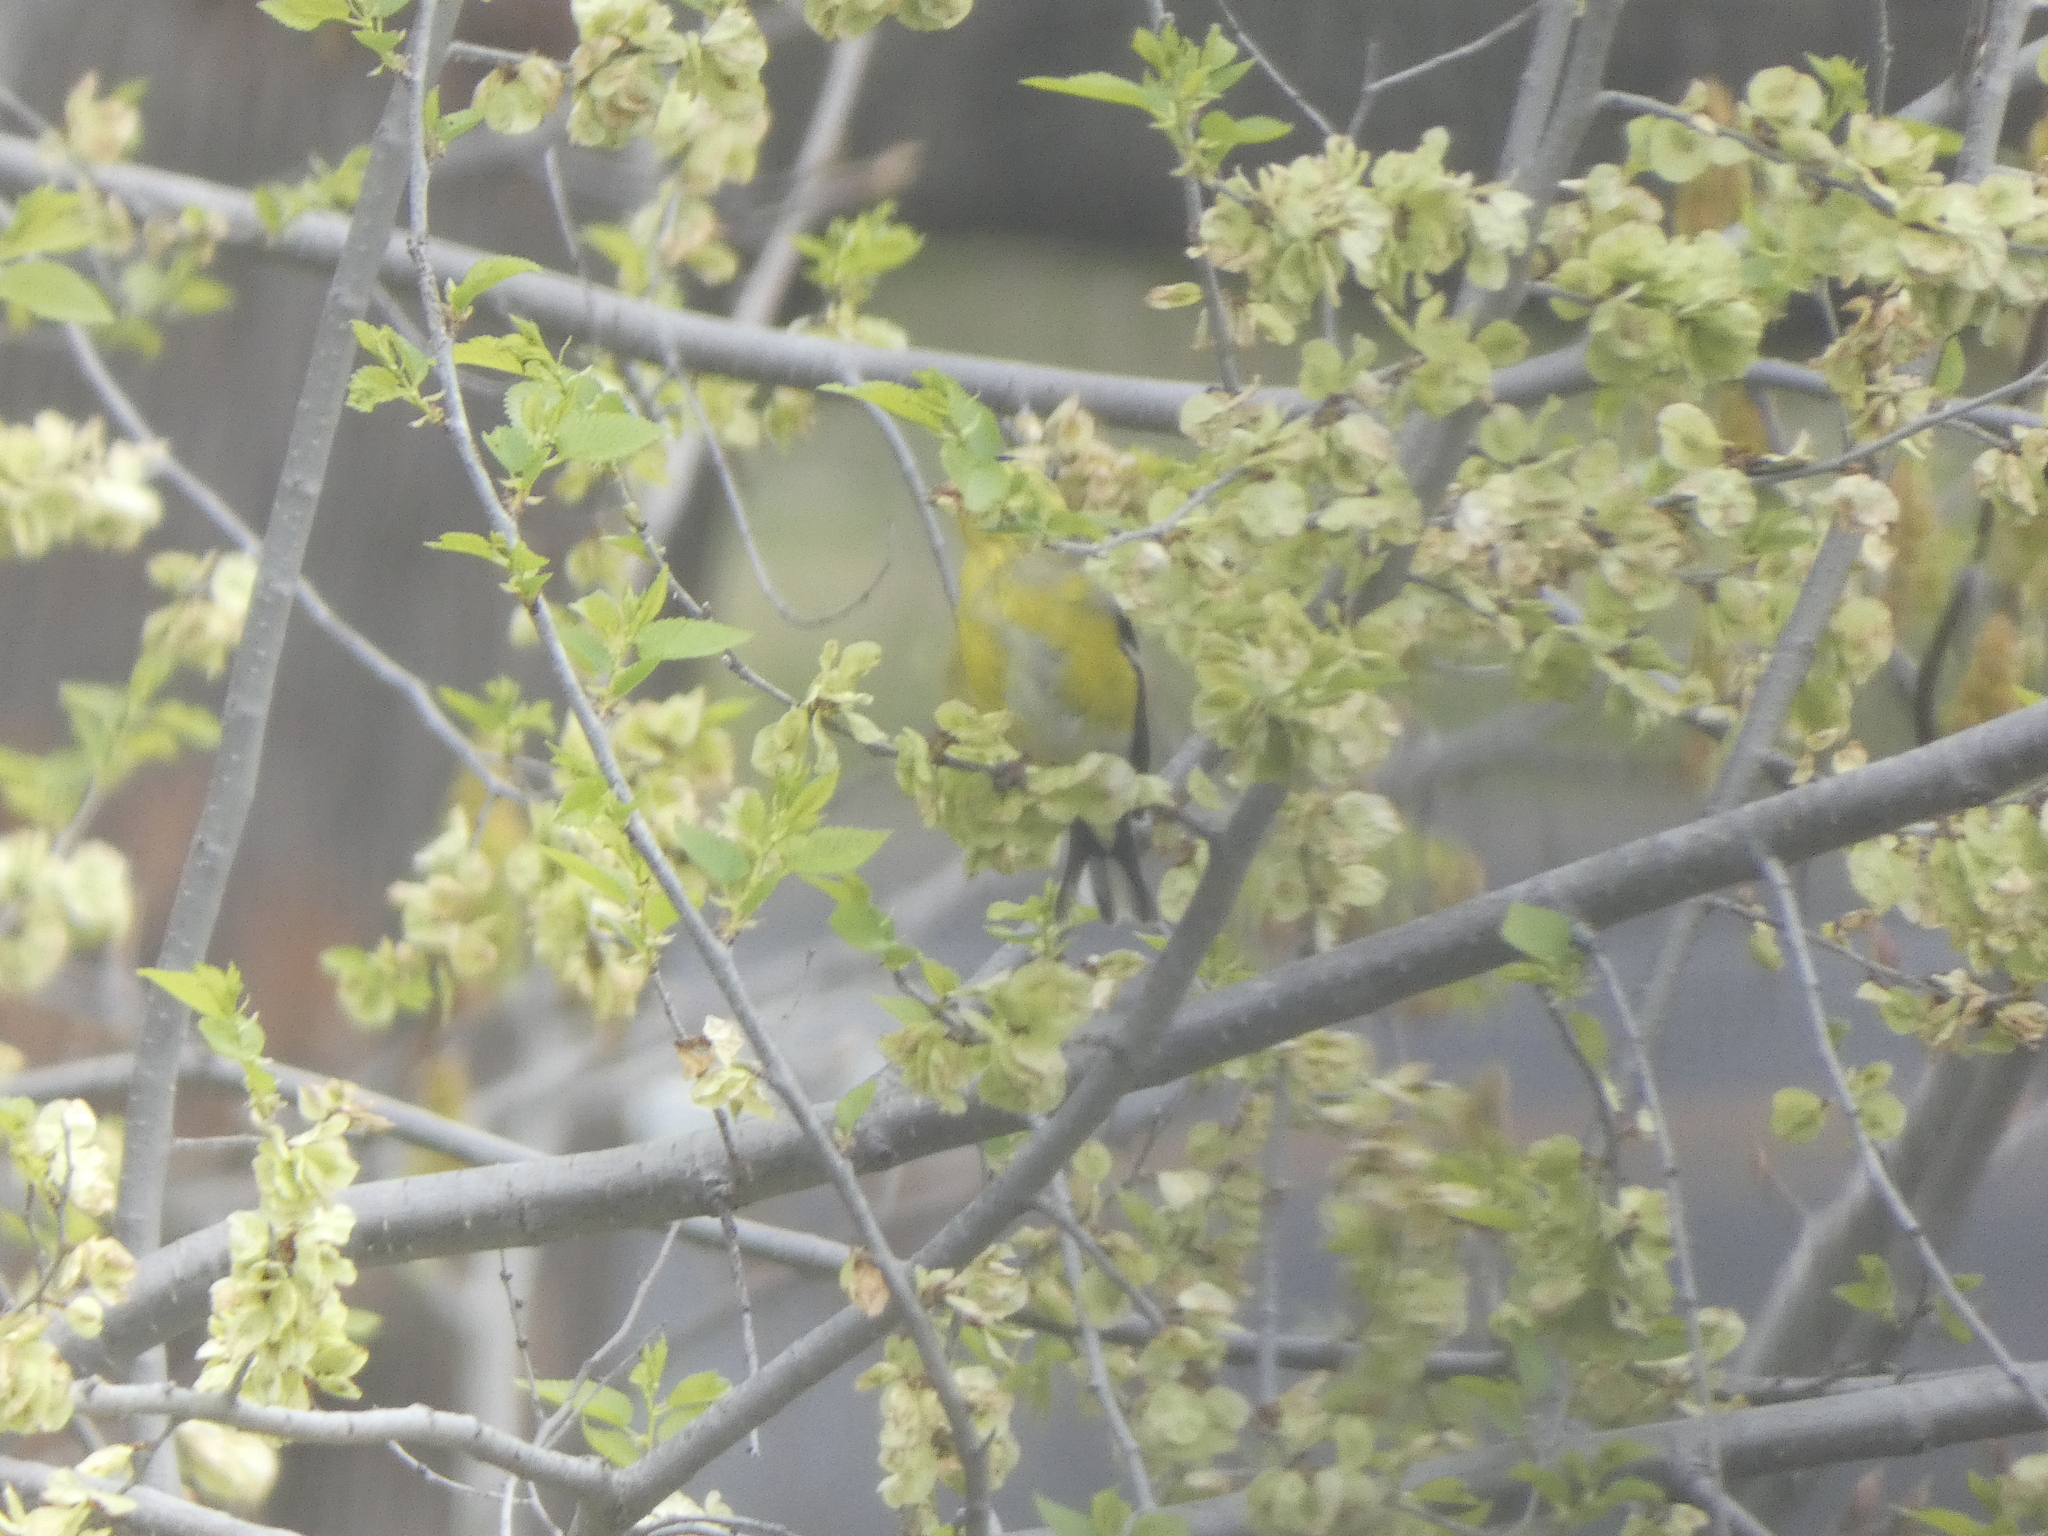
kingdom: Animalia
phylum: Chordata
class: Aves
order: Passeriformes
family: Fringillidae
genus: Spinus
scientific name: Spinus tristis
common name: American goldfinch
